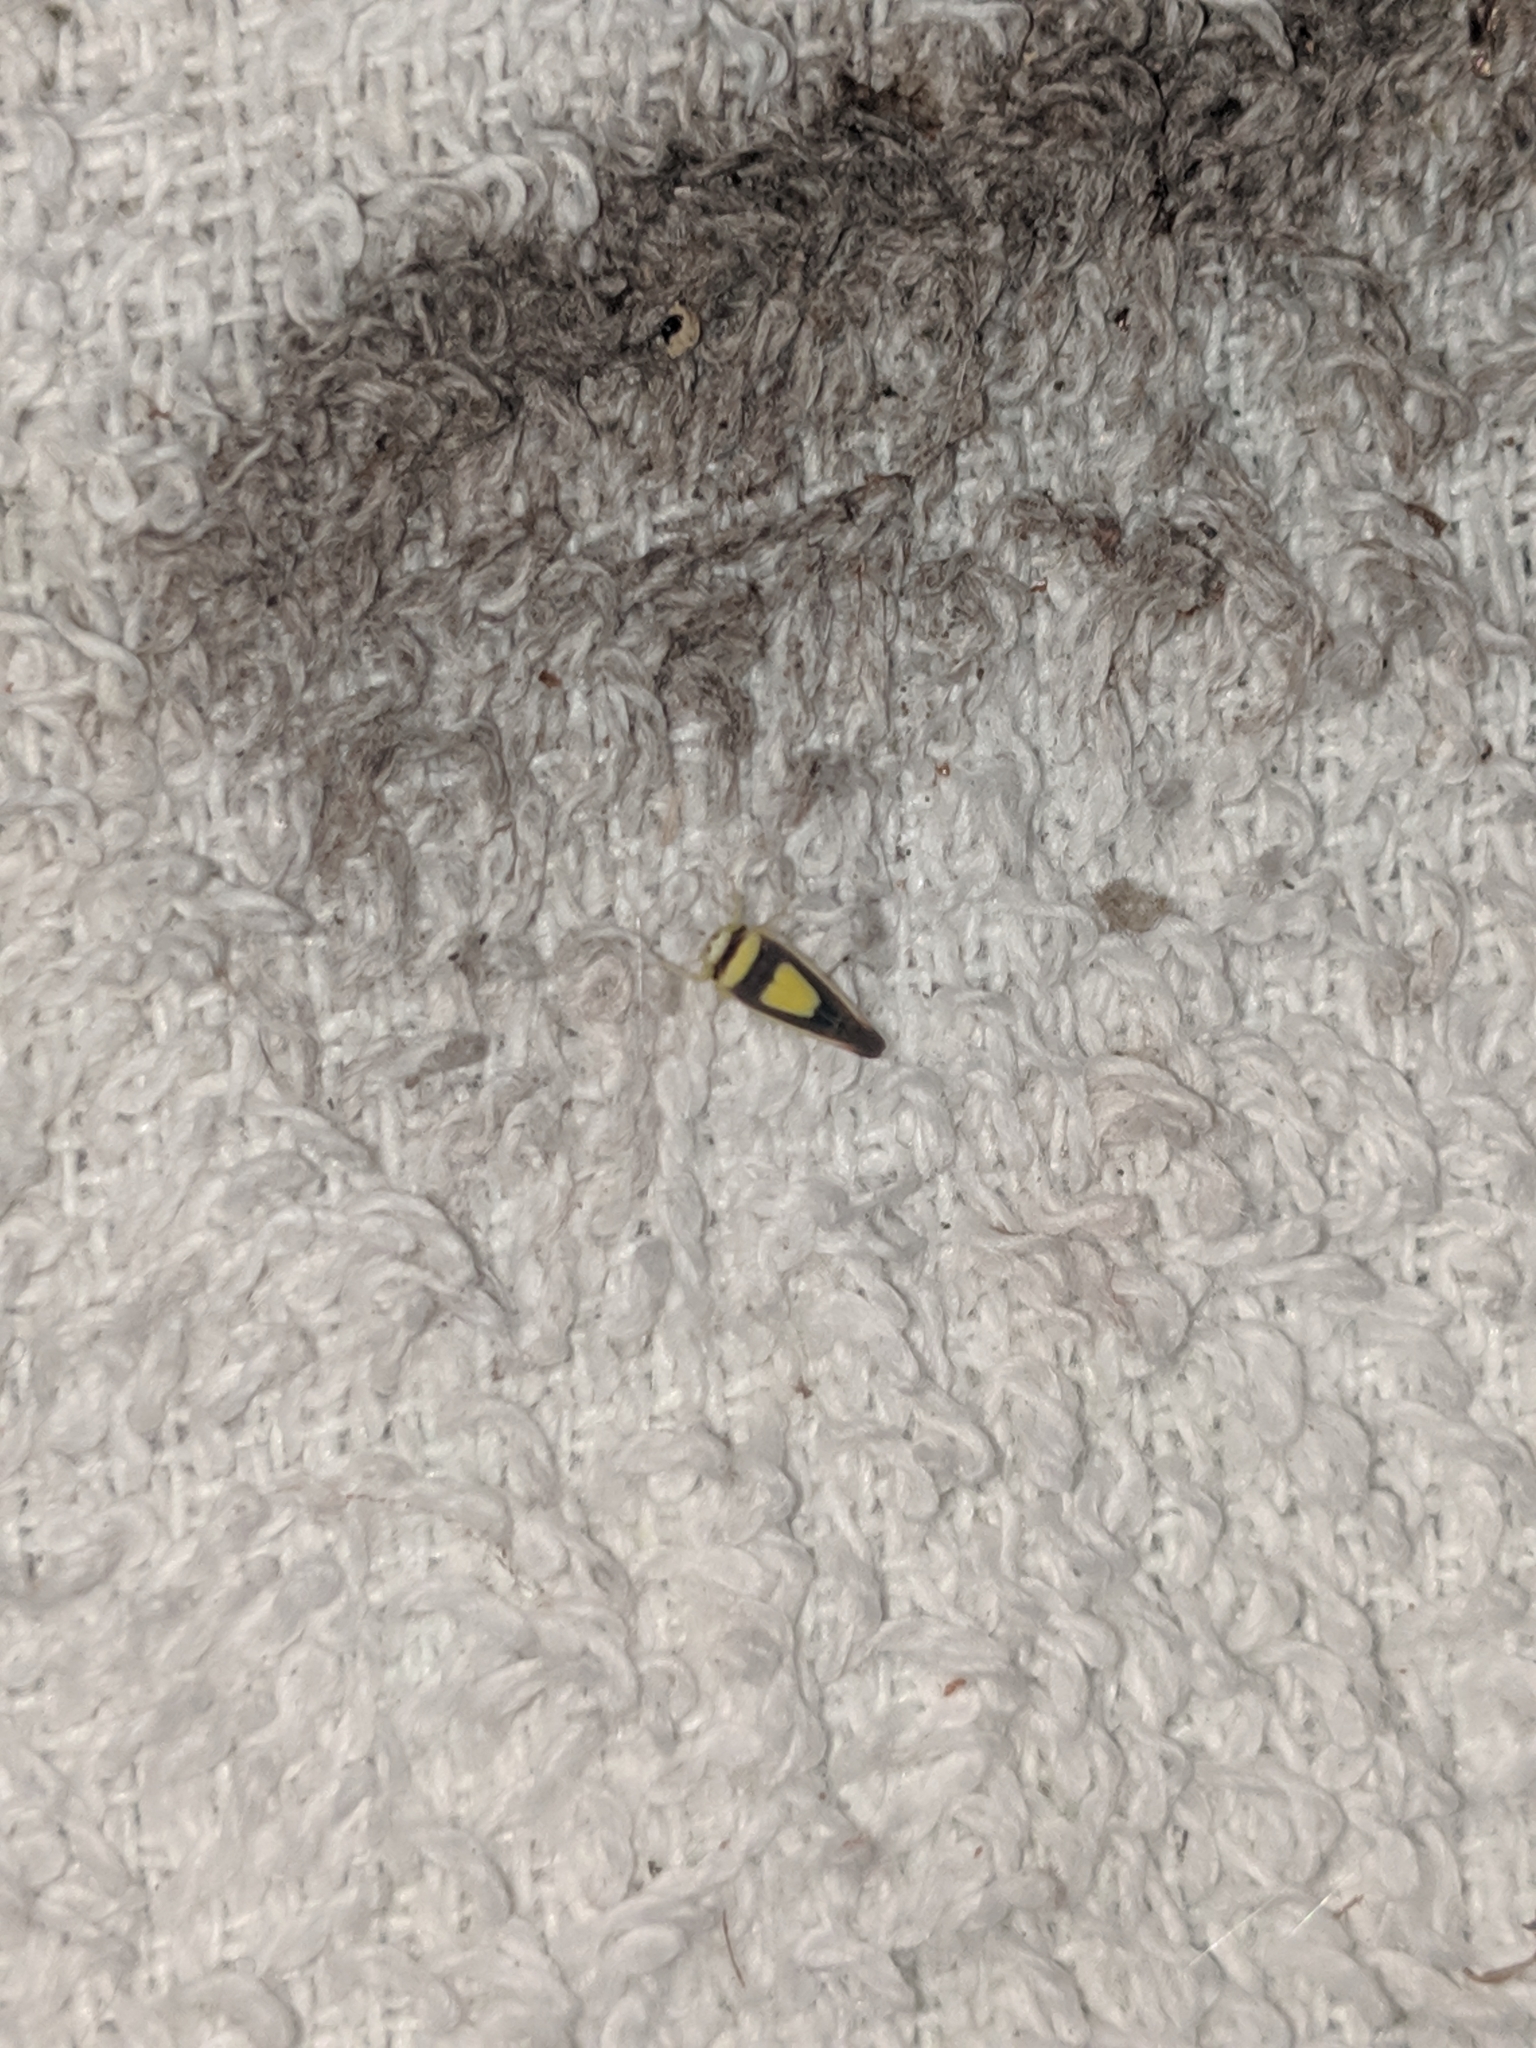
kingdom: Animalia
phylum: Arthropoda
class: Insecta
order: Hemiptera
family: Cicadellidae
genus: Colladonus
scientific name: Colladonus clitellarius
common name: The saddleback leafhopper
